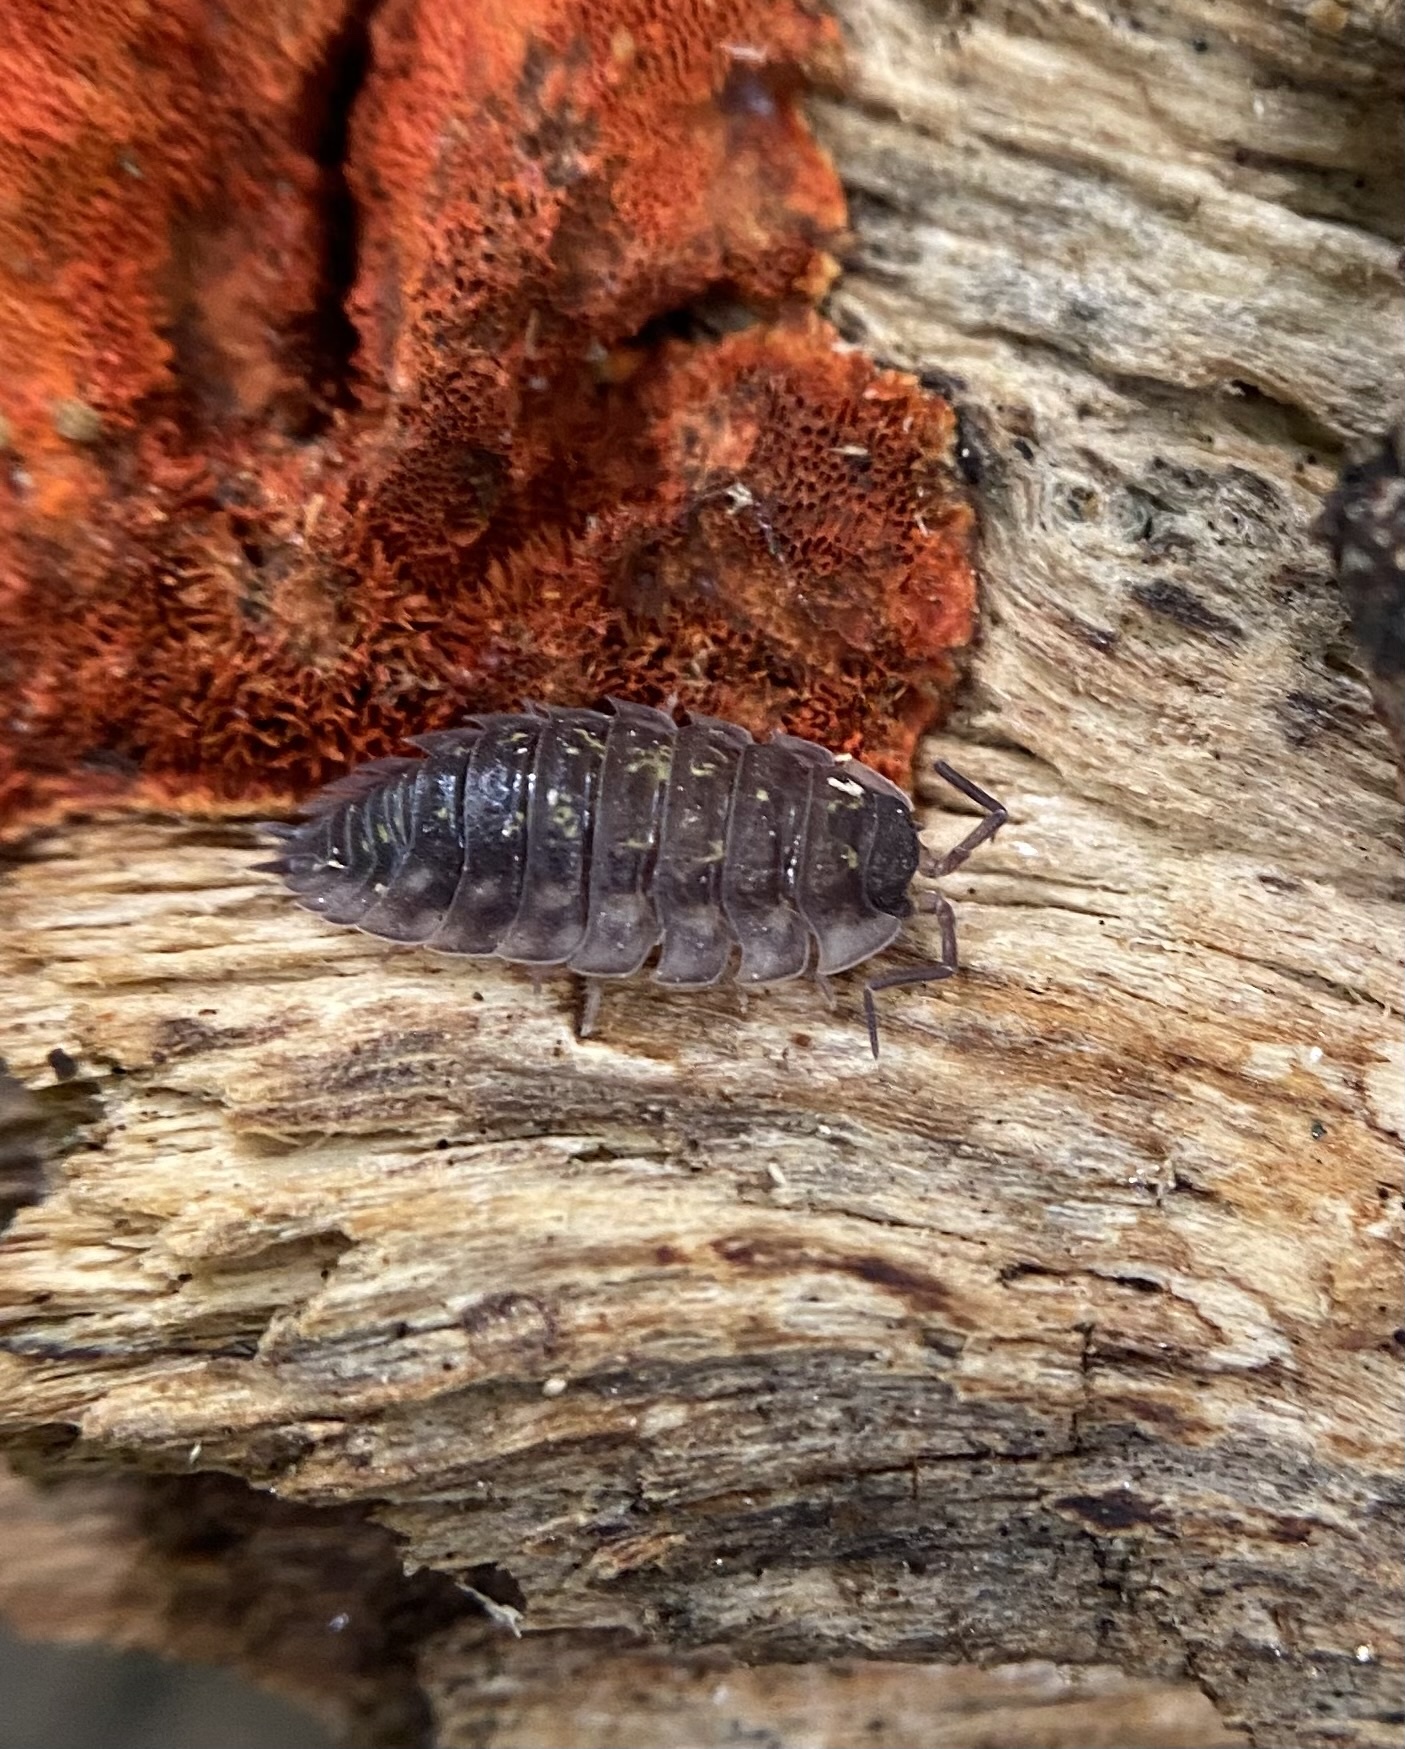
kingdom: Animalia
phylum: Arthropoda
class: Malacostraca
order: Isopoda
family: Oniscidae
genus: Oniscus
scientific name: Oniscus asellus
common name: Common shiny woodlouse
